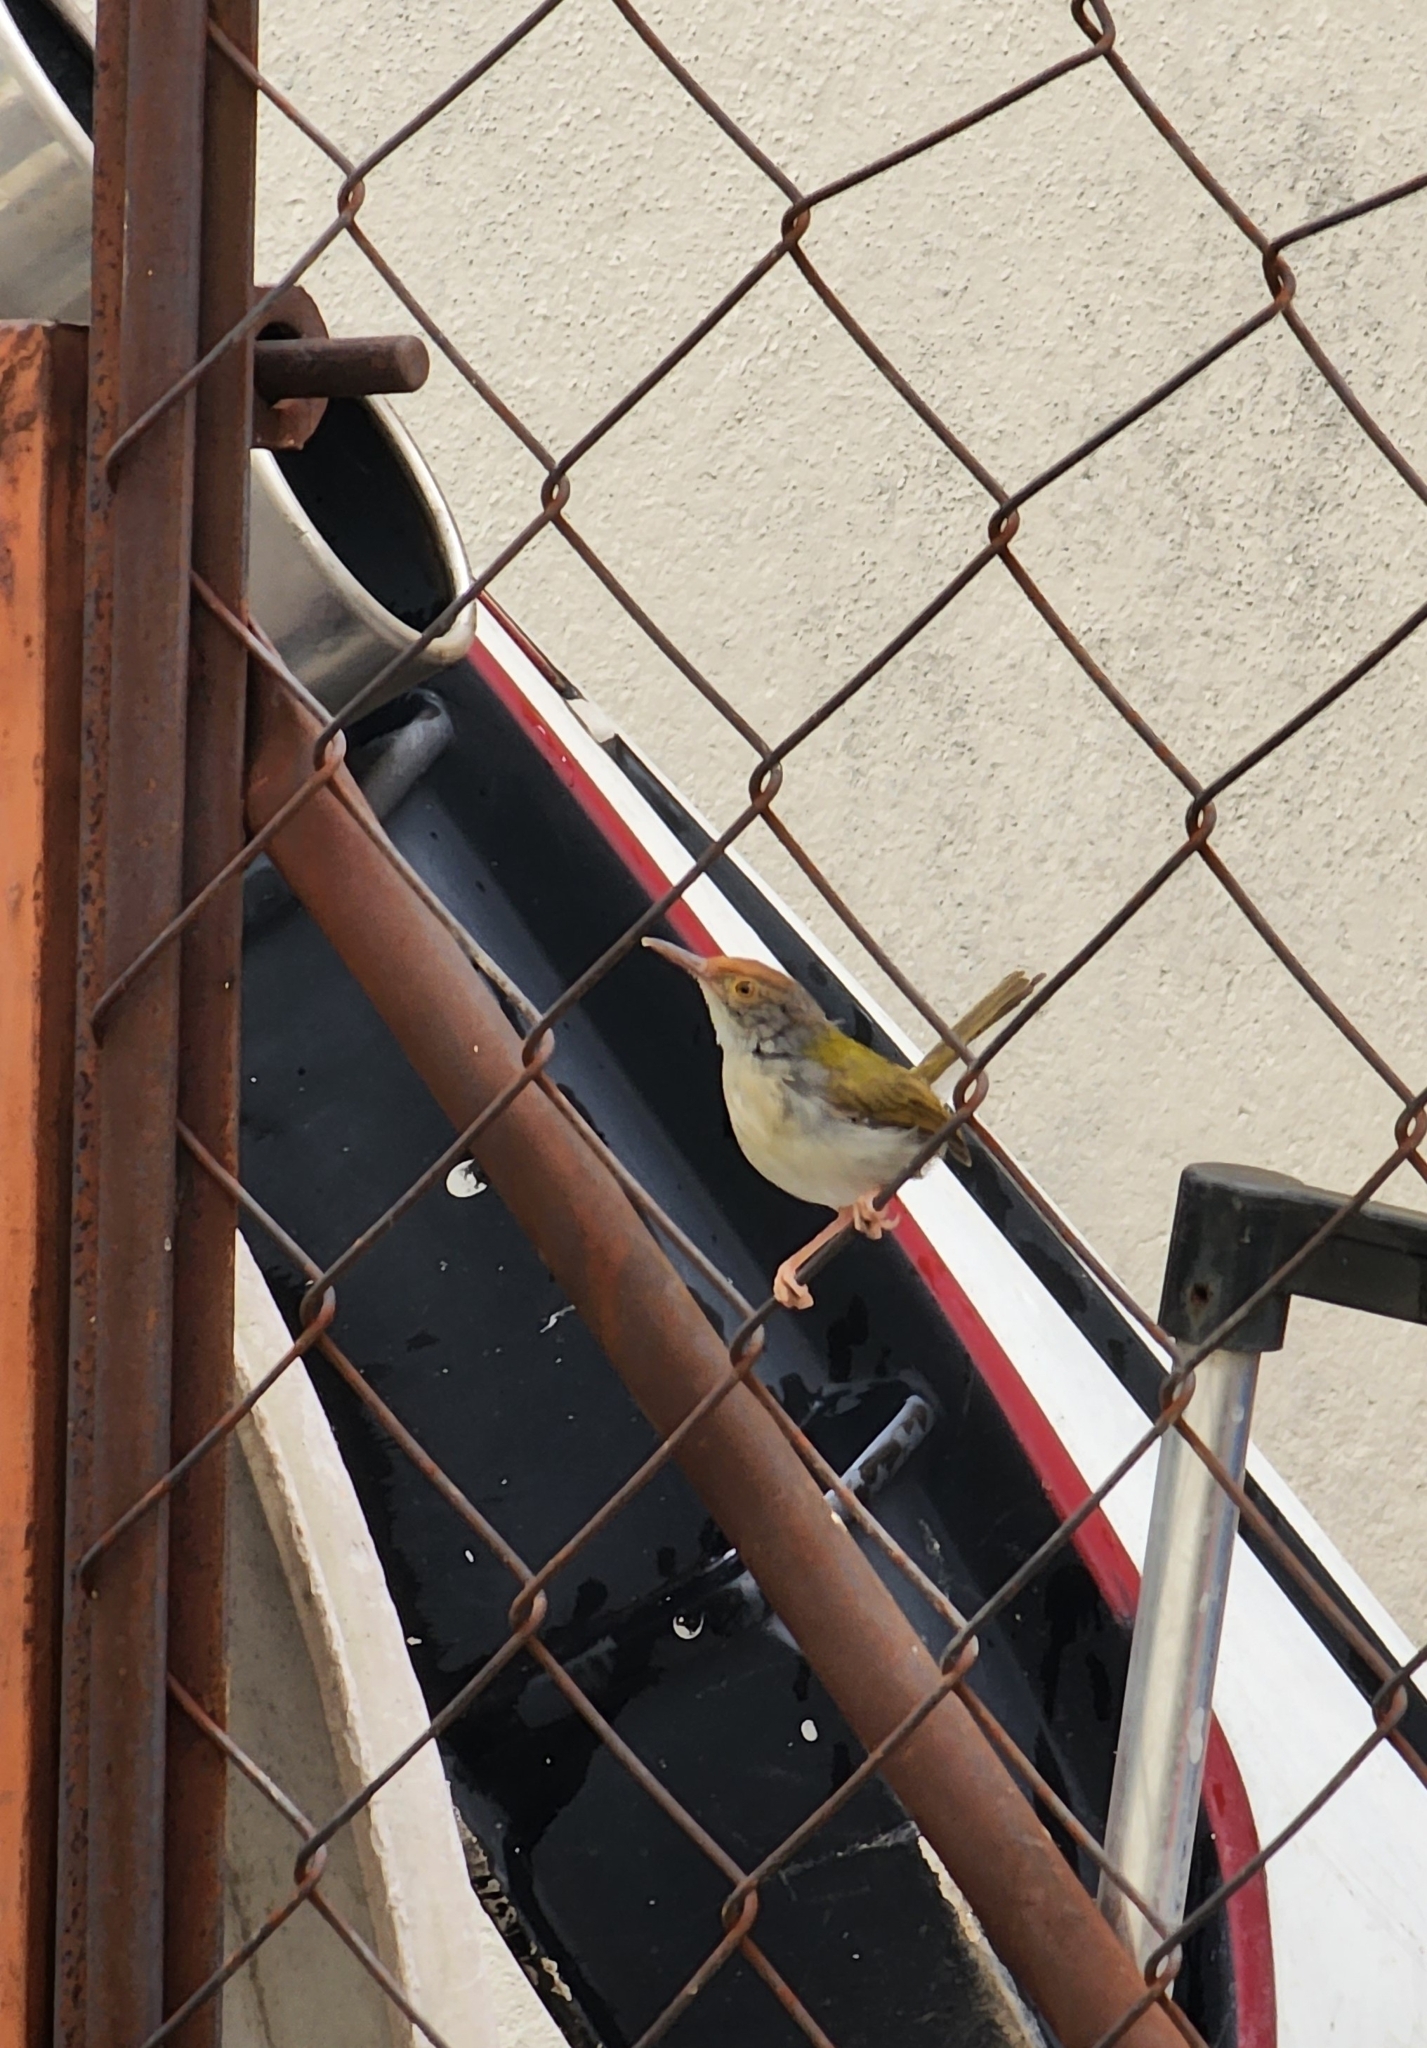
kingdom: Animalia
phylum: Chordata
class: Aves
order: Passeriformes
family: Cisticolidae
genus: Orthotomus
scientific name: Orthotomus sutorius
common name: Common tailorbird
